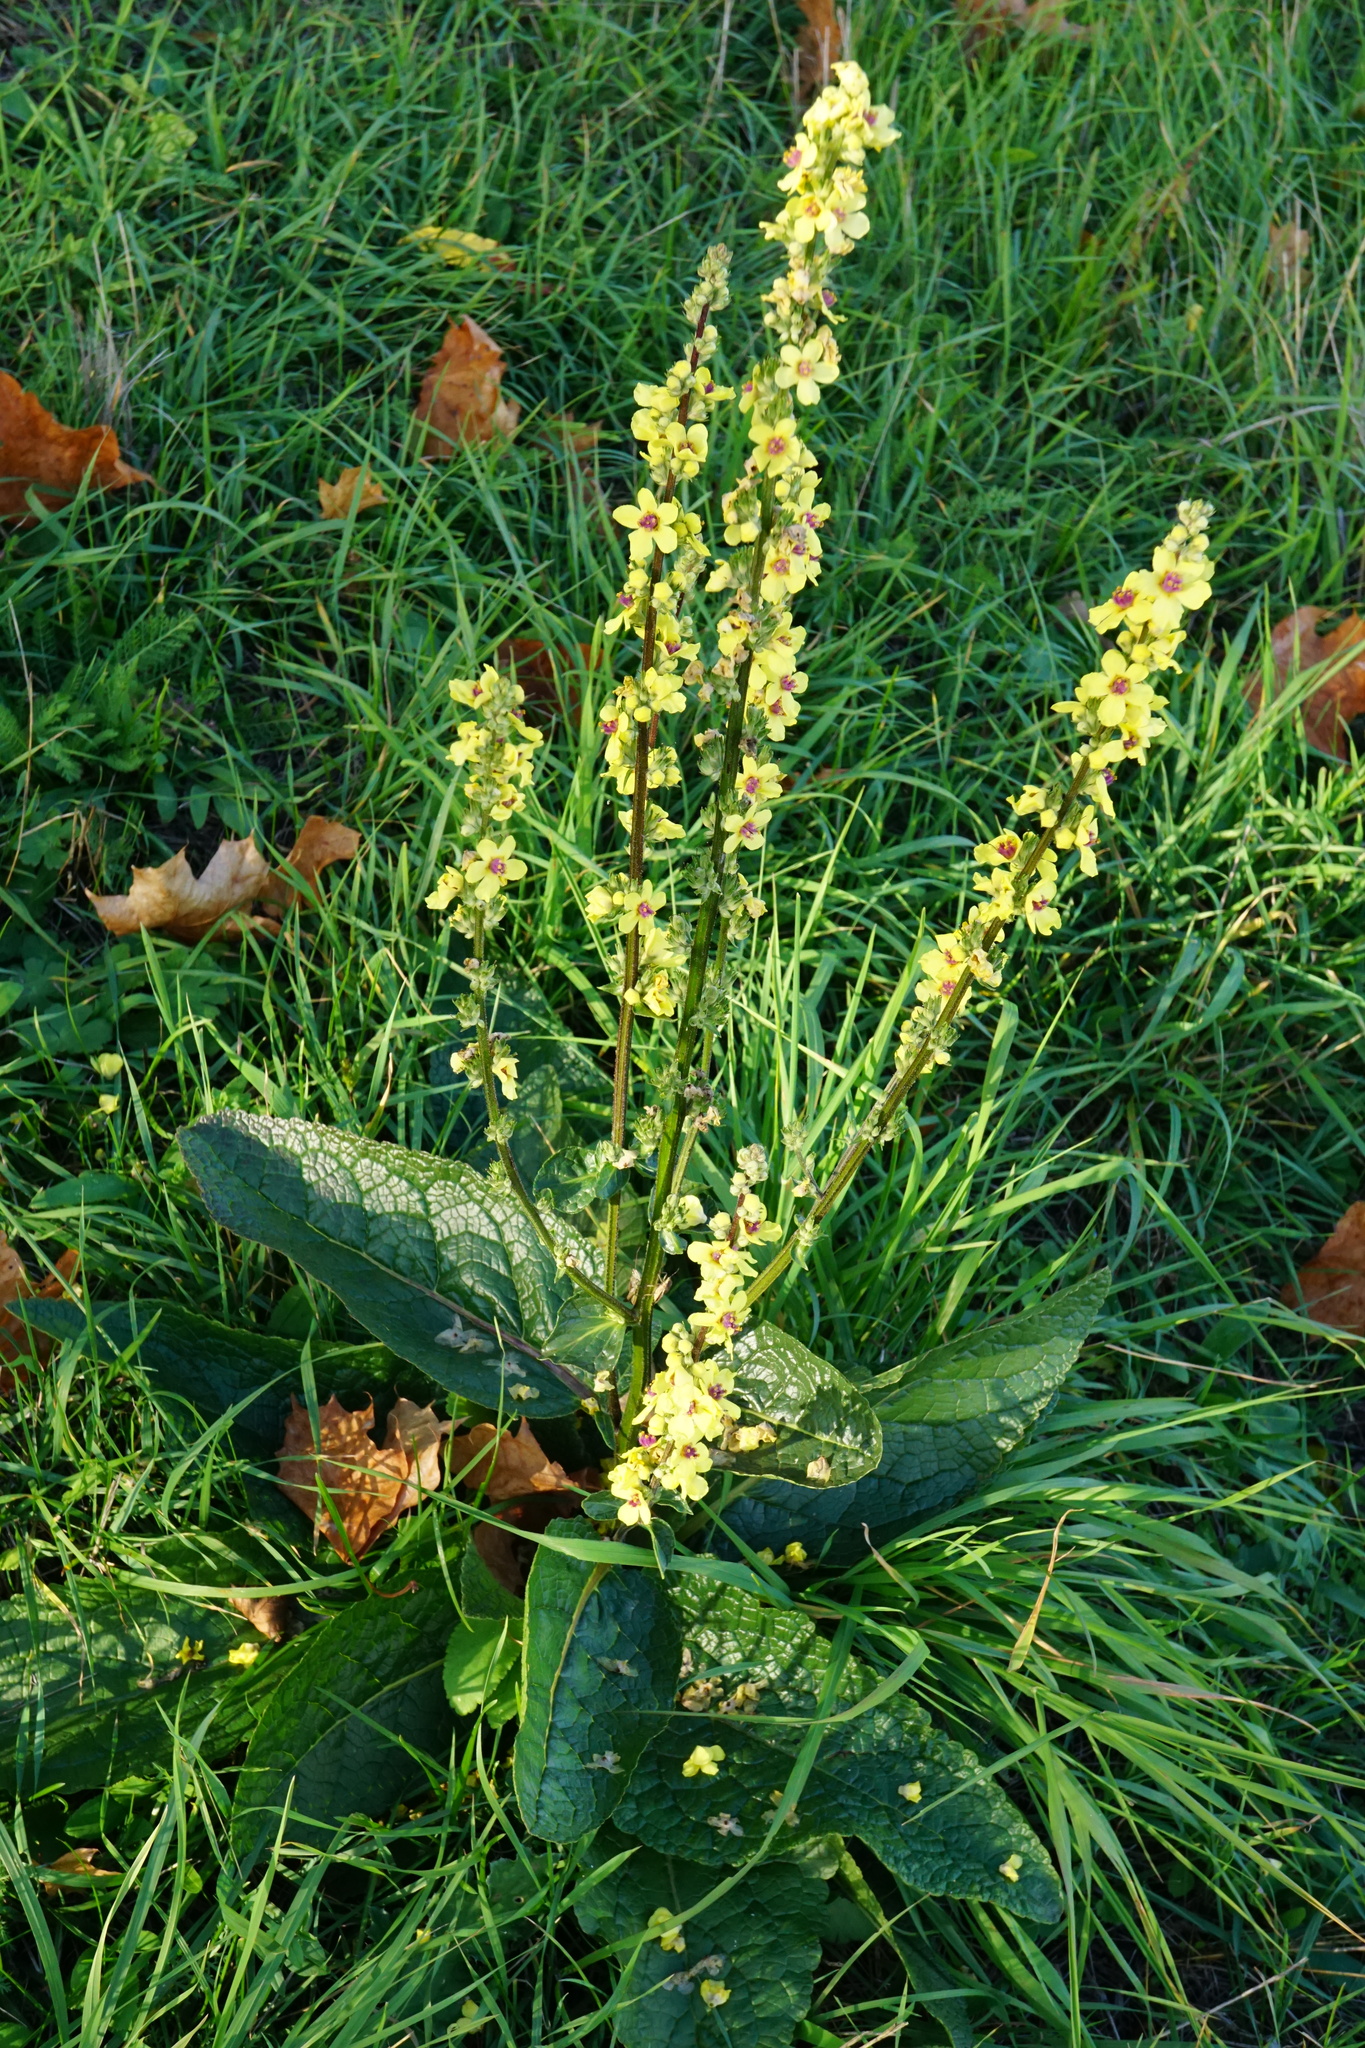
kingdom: Plantae
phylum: Tracheophyta
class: Magnoliopsida
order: Lamiales
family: Scrophulariaceae
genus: Verbascum
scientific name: Verbascum chaixii
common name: Nettle-leaved mullein
